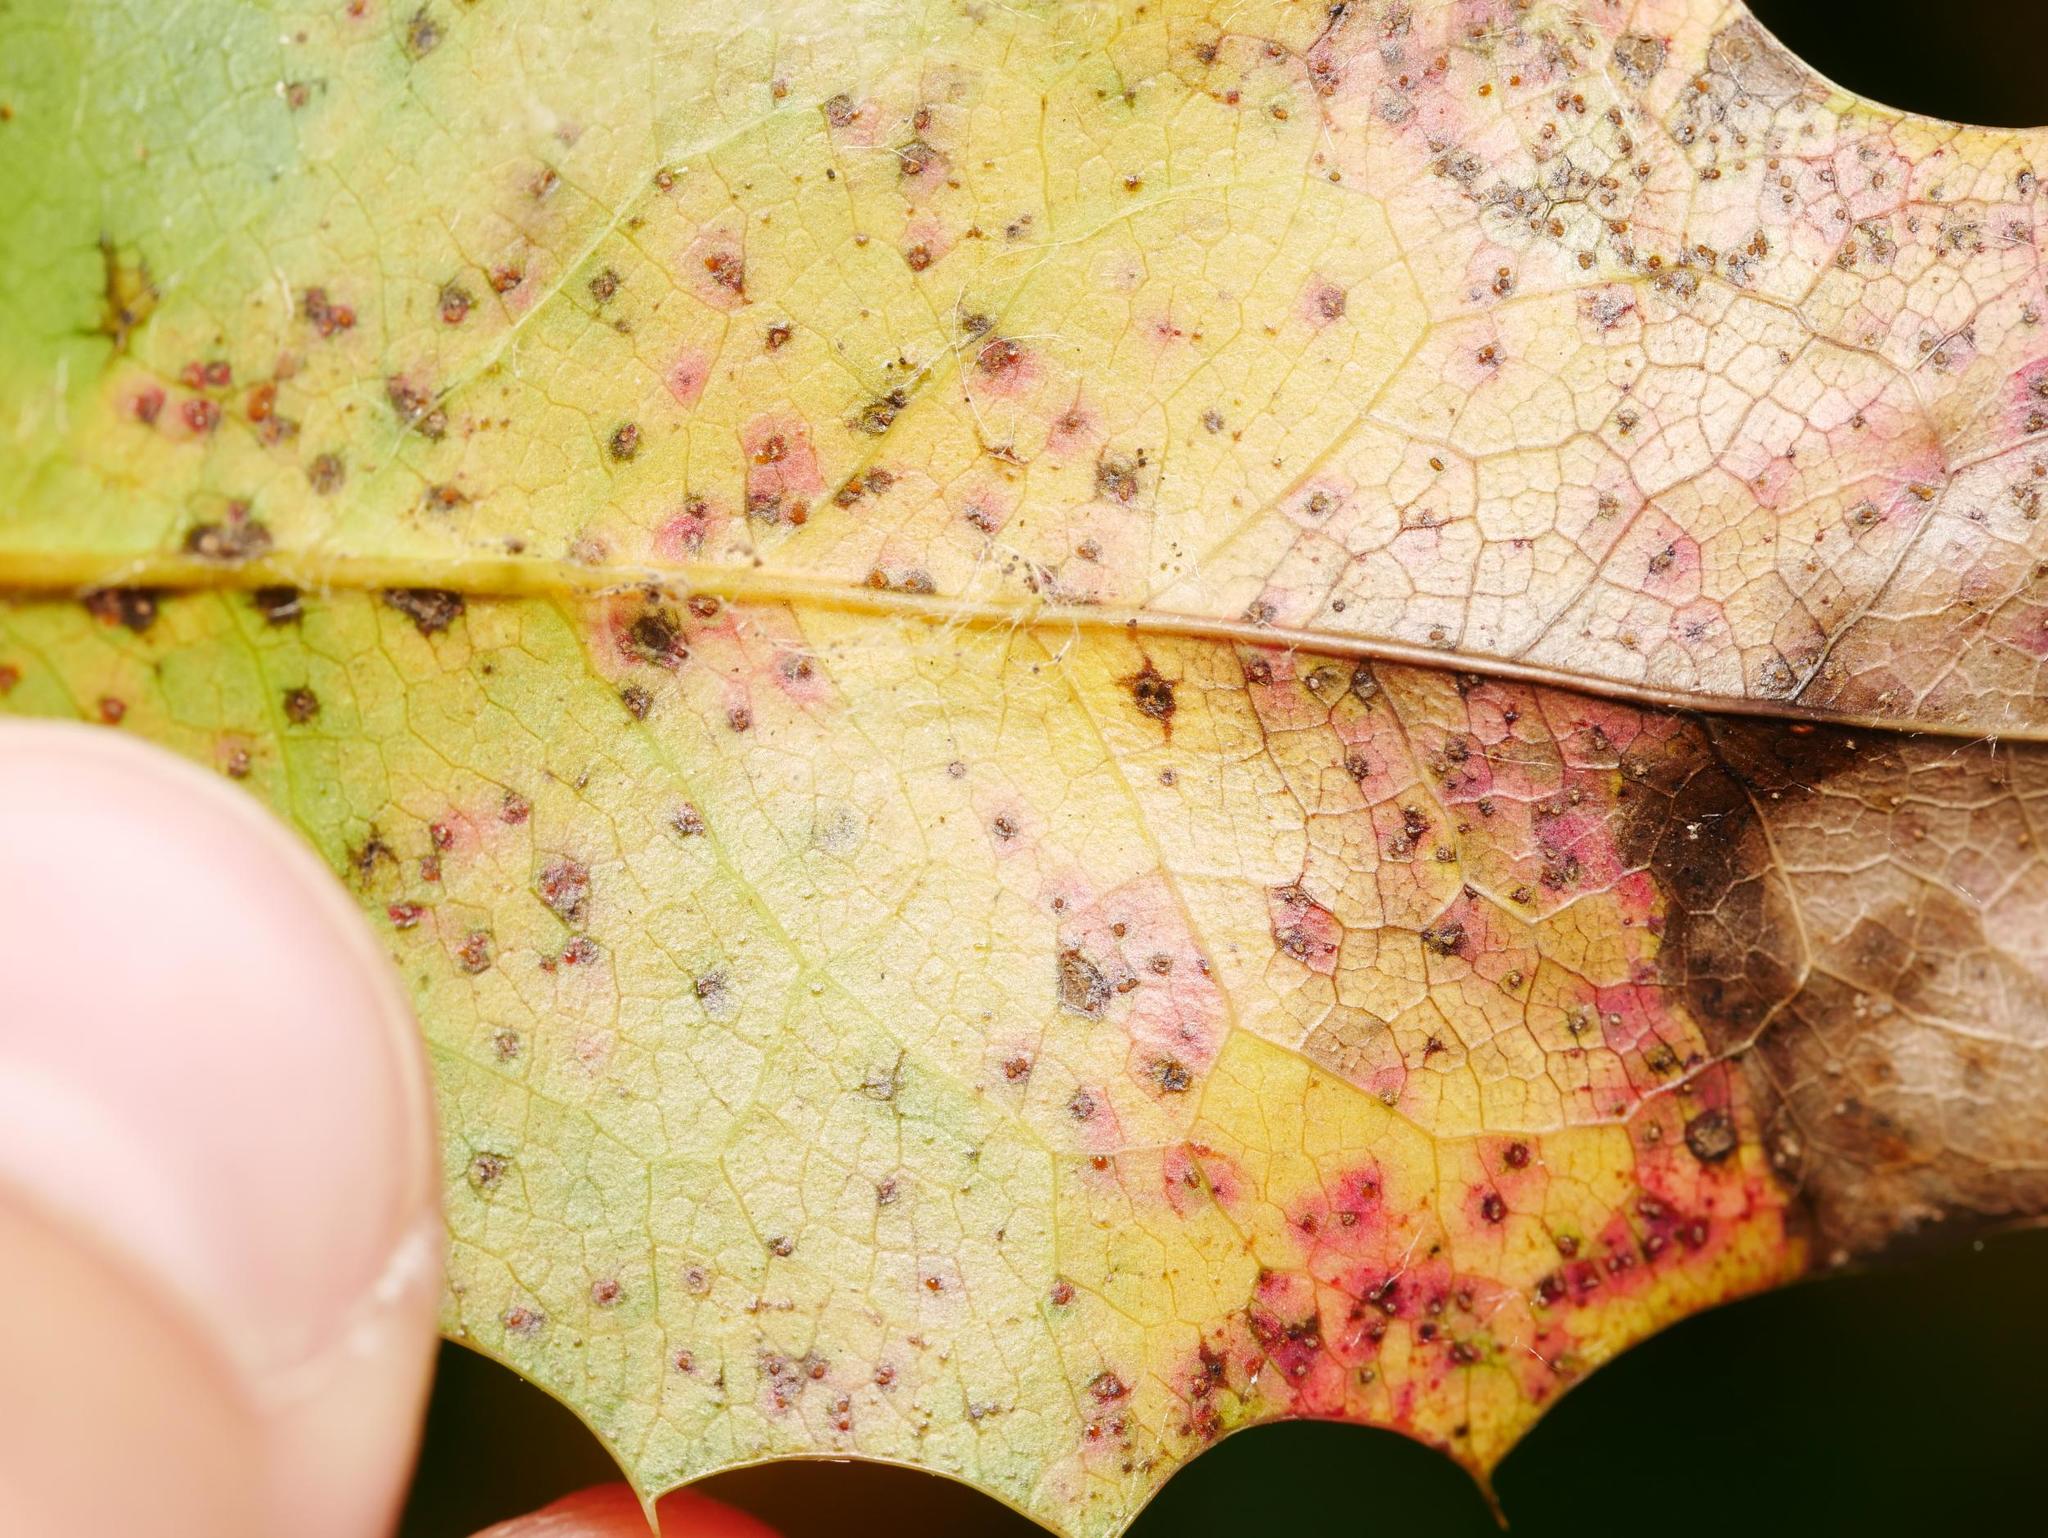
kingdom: Fungi
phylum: Basidiomycota
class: Pucciniomycetes
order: Pucciniales
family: Pucciniaceae
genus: Cumminsiella
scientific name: Cumminsiella mirabilissima
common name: Mahonia rust
